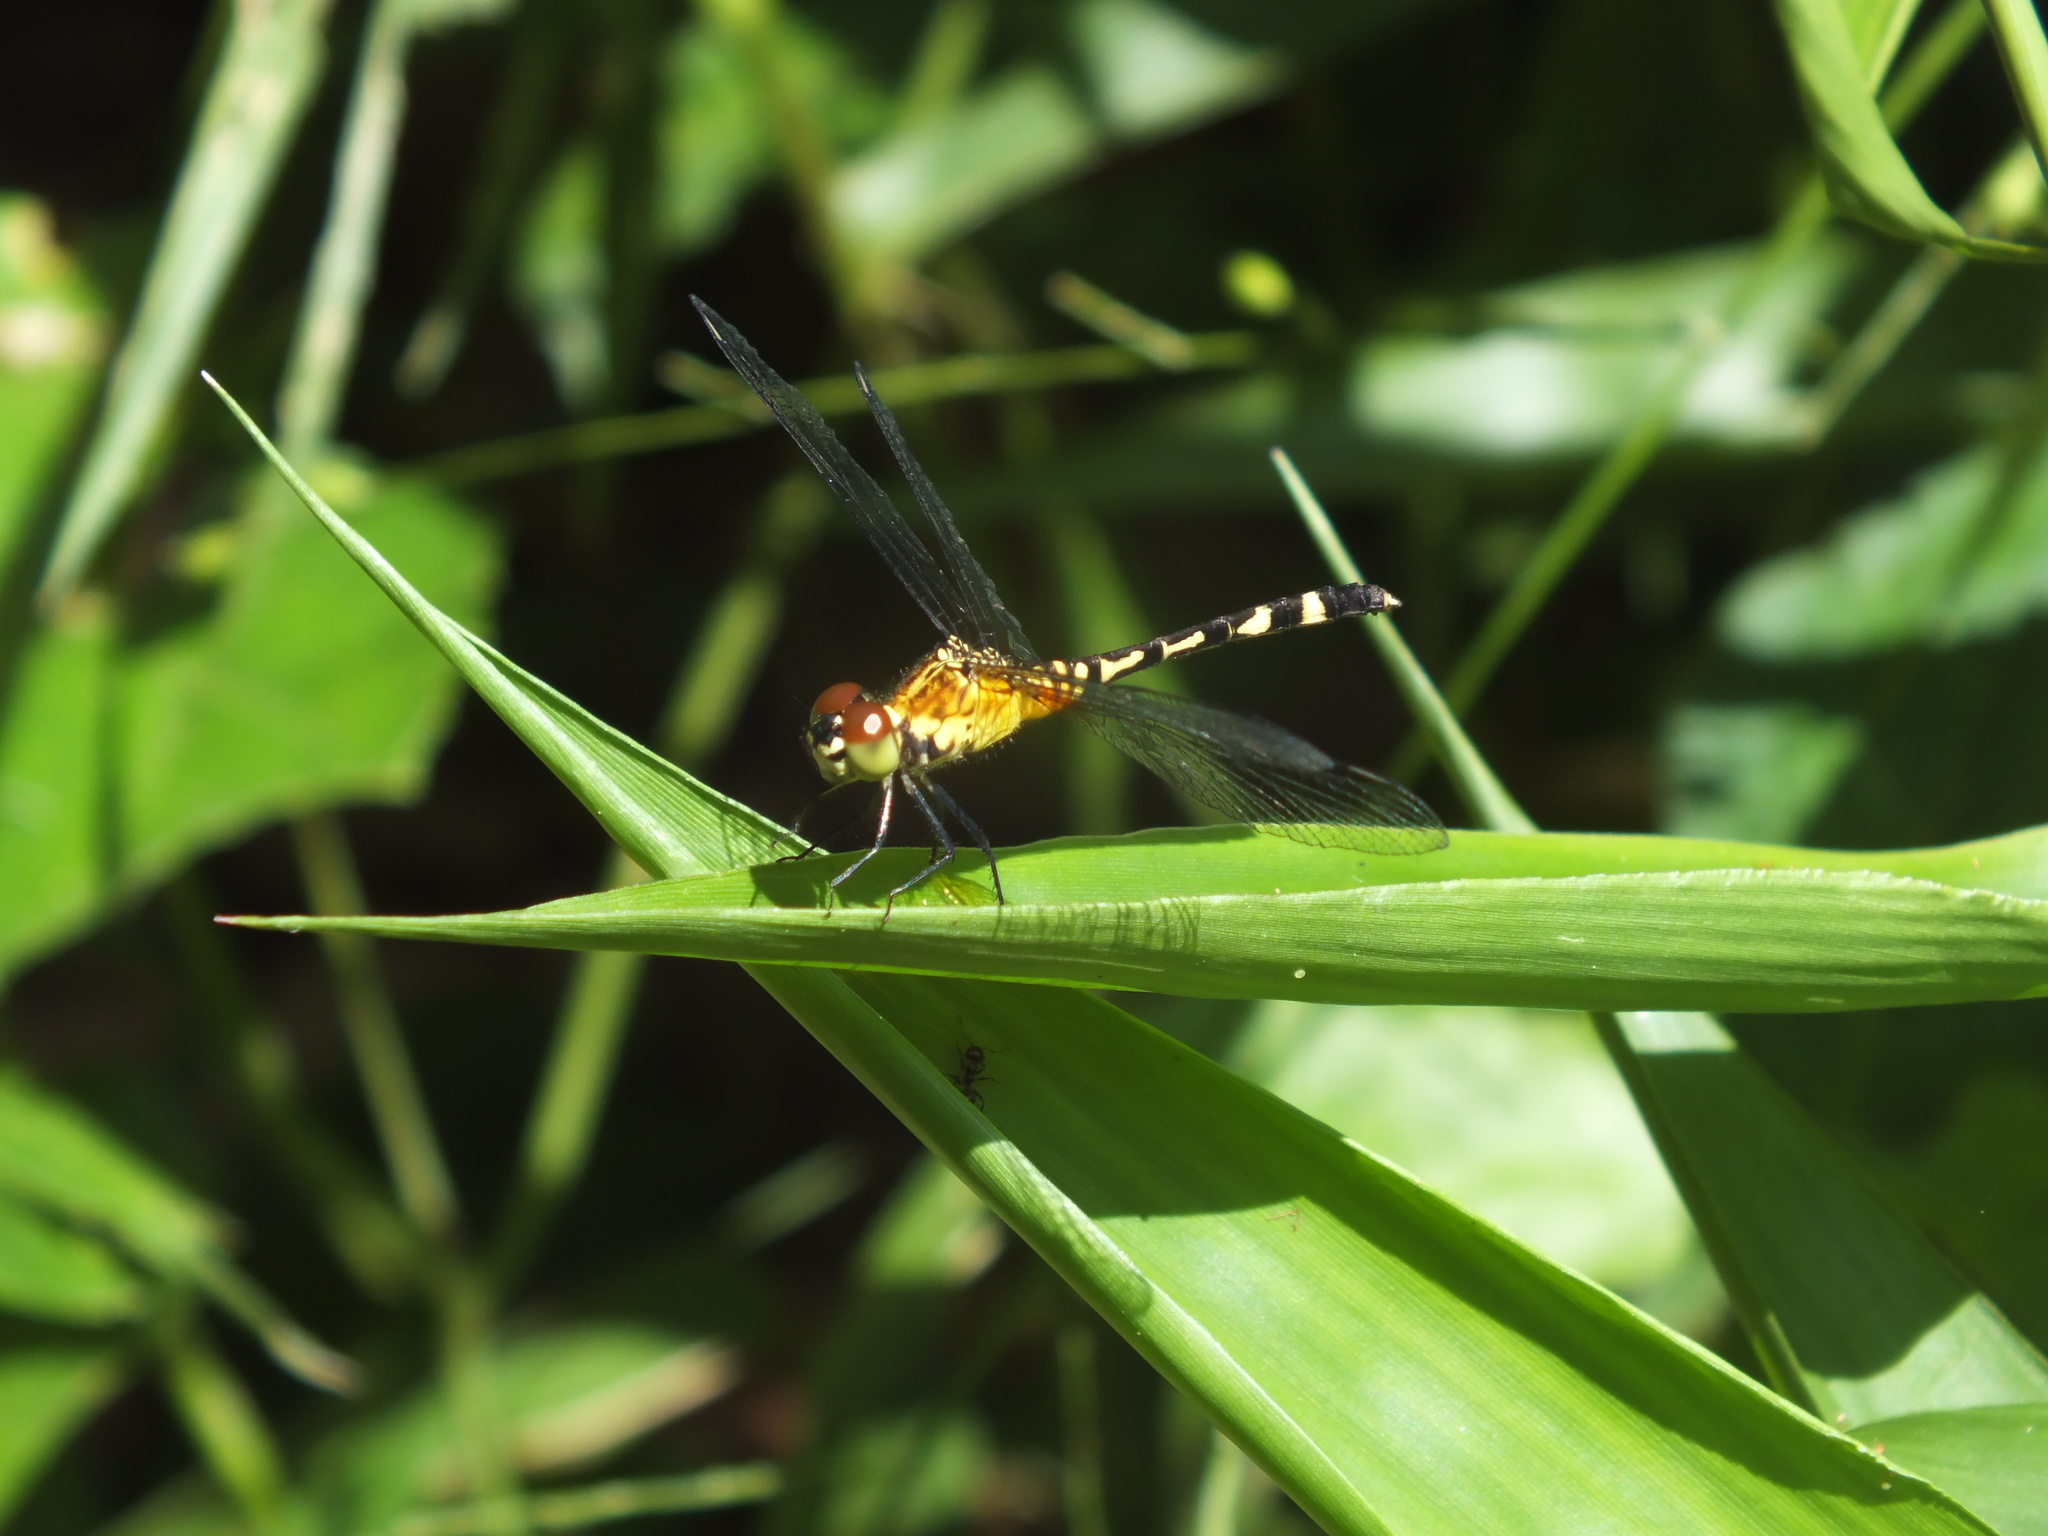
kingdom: Animalia
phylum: Arthropoda
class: Insecta
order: Odonata
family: Libellulidae
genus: Anatya
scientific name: Anatya guttata
